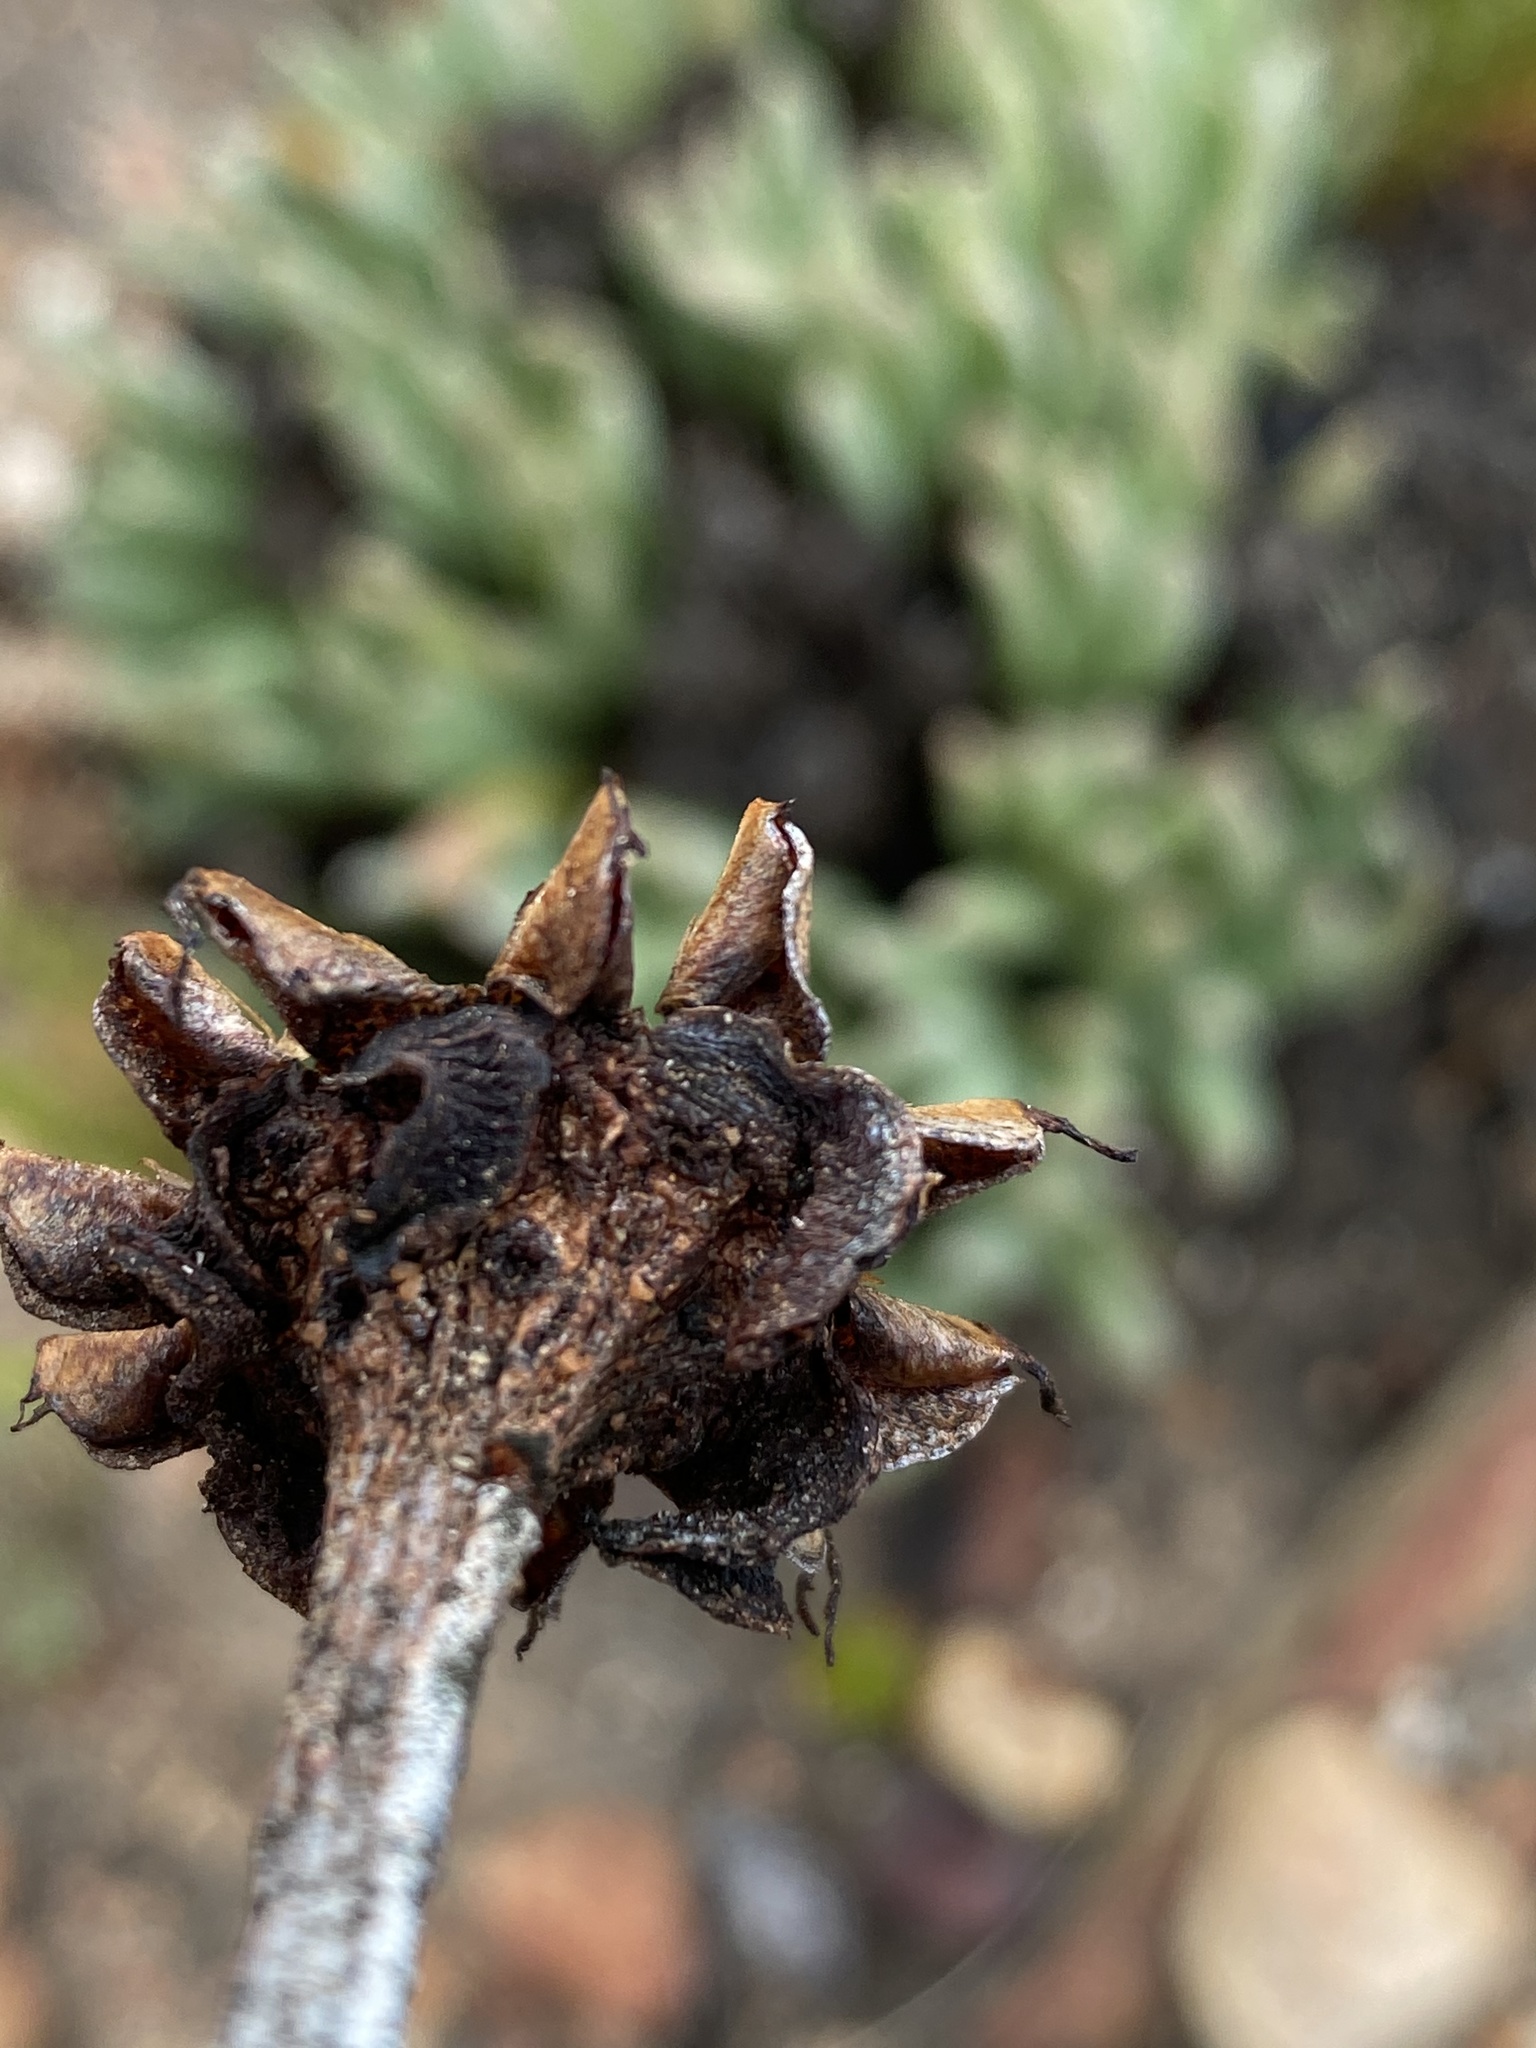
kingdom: Plantae
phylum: Tracheophyta
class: Magnoliopsida
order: Caryophyllales
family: Aizoaceae
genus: Machairophyllum
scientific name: Machairophyllum albidum
